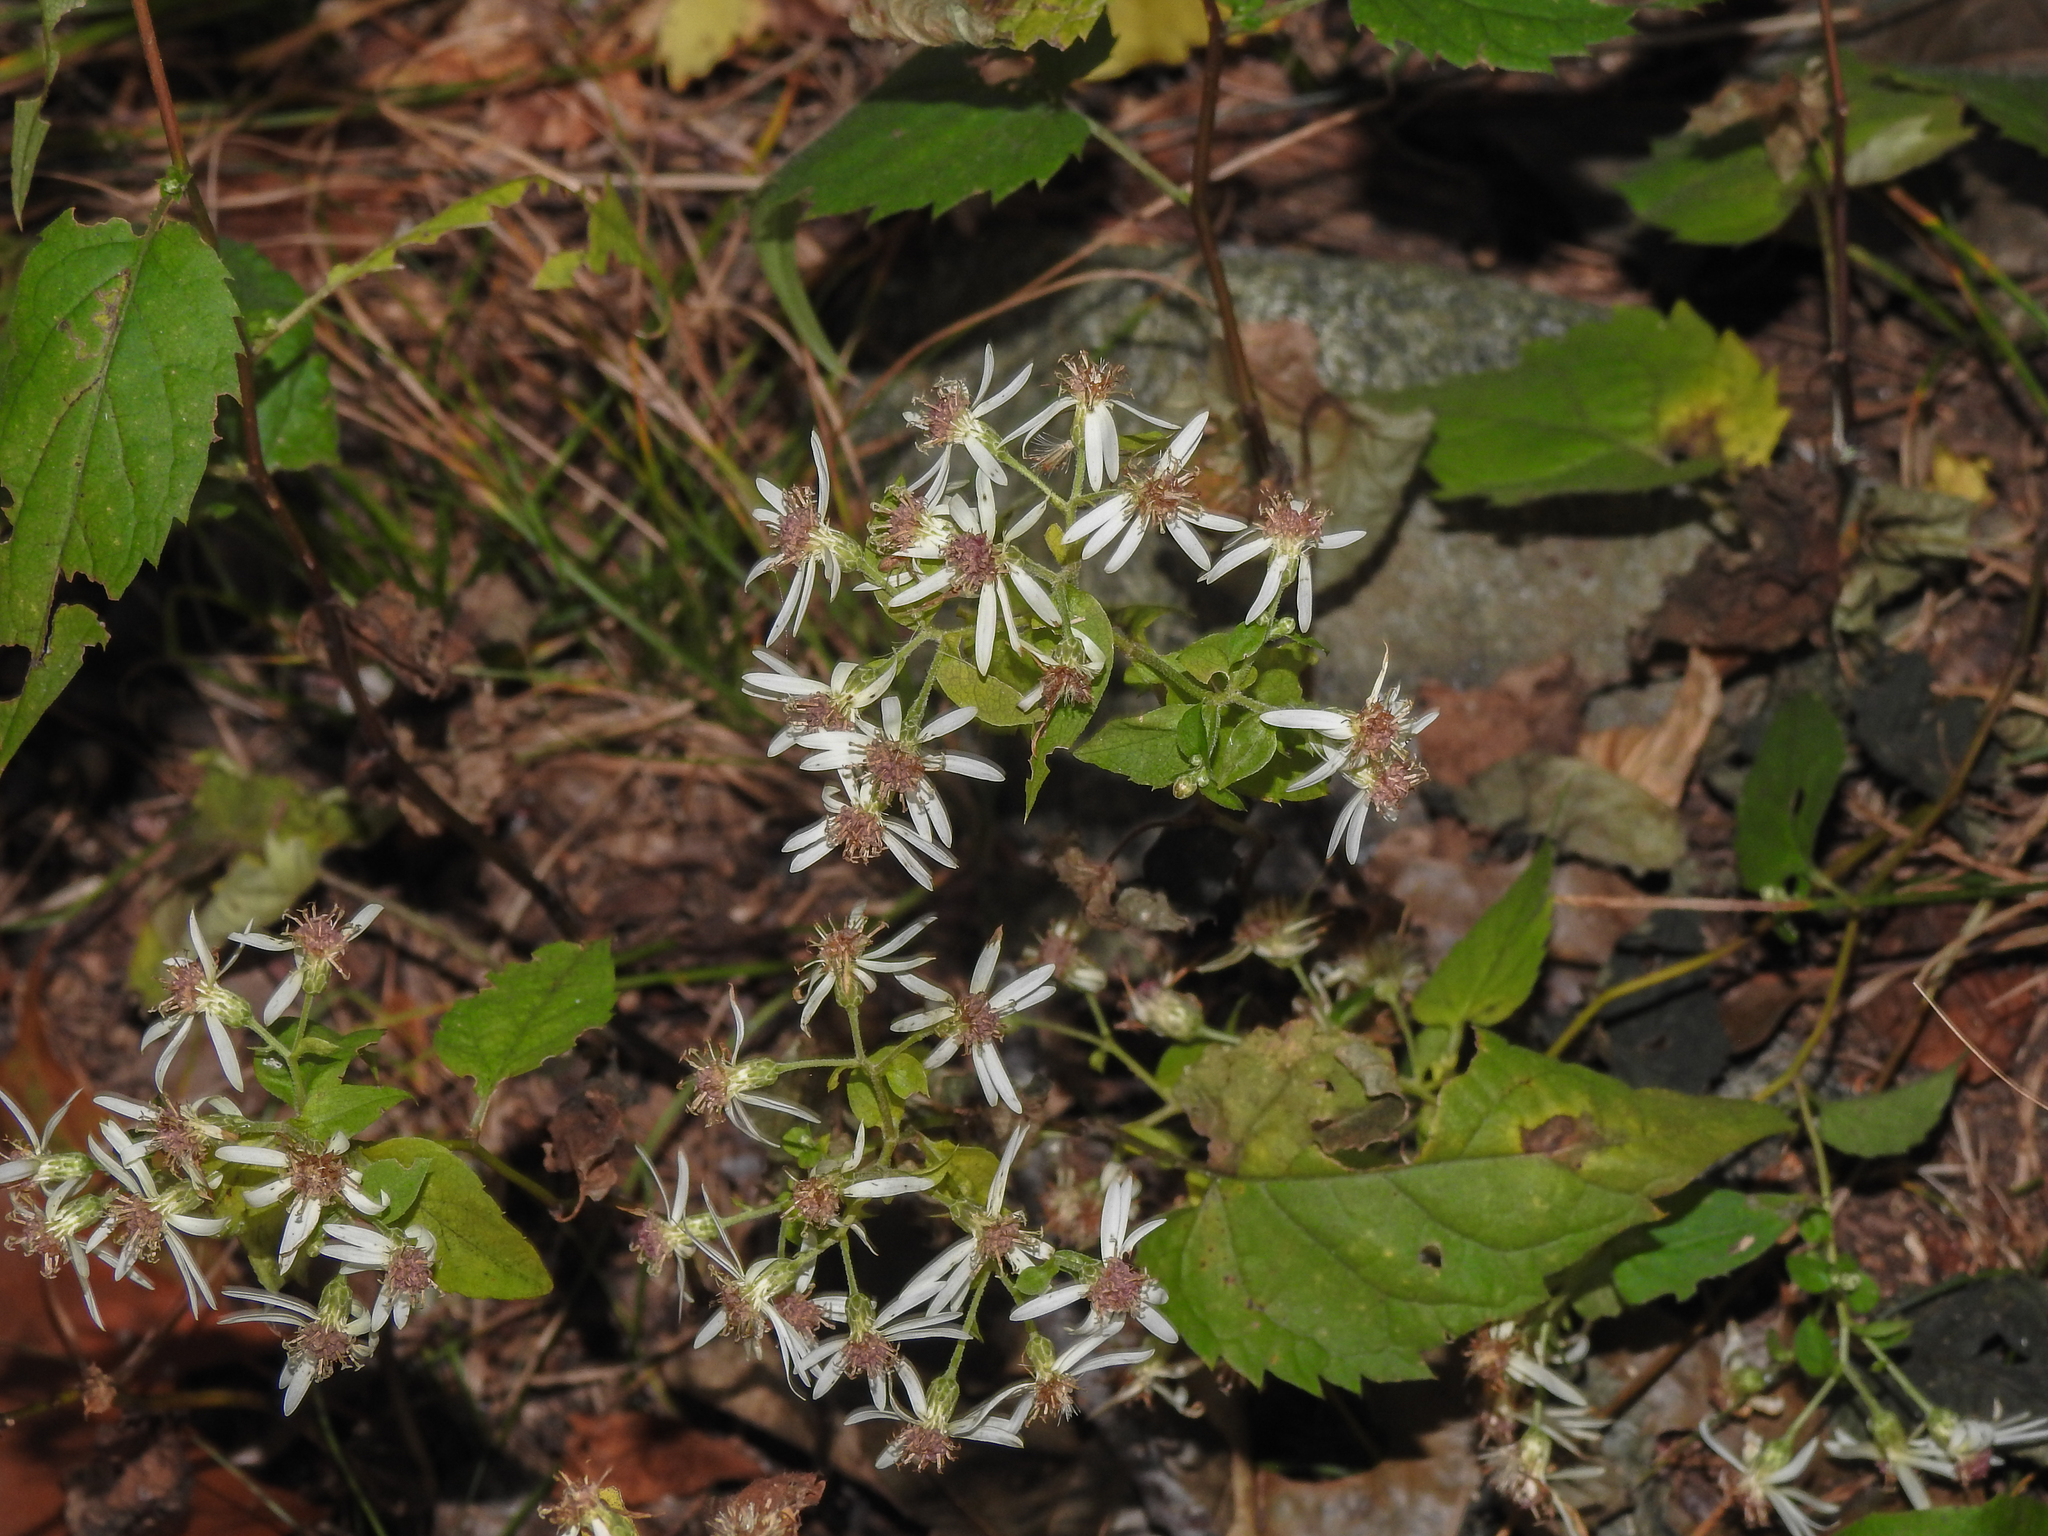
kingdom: Plantae
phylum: Tracheophyta
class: Magnoliopsida
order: Asterales
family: Asteraceae
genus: Eurybia
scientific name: Eurybia divaricata
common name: White wood aster
